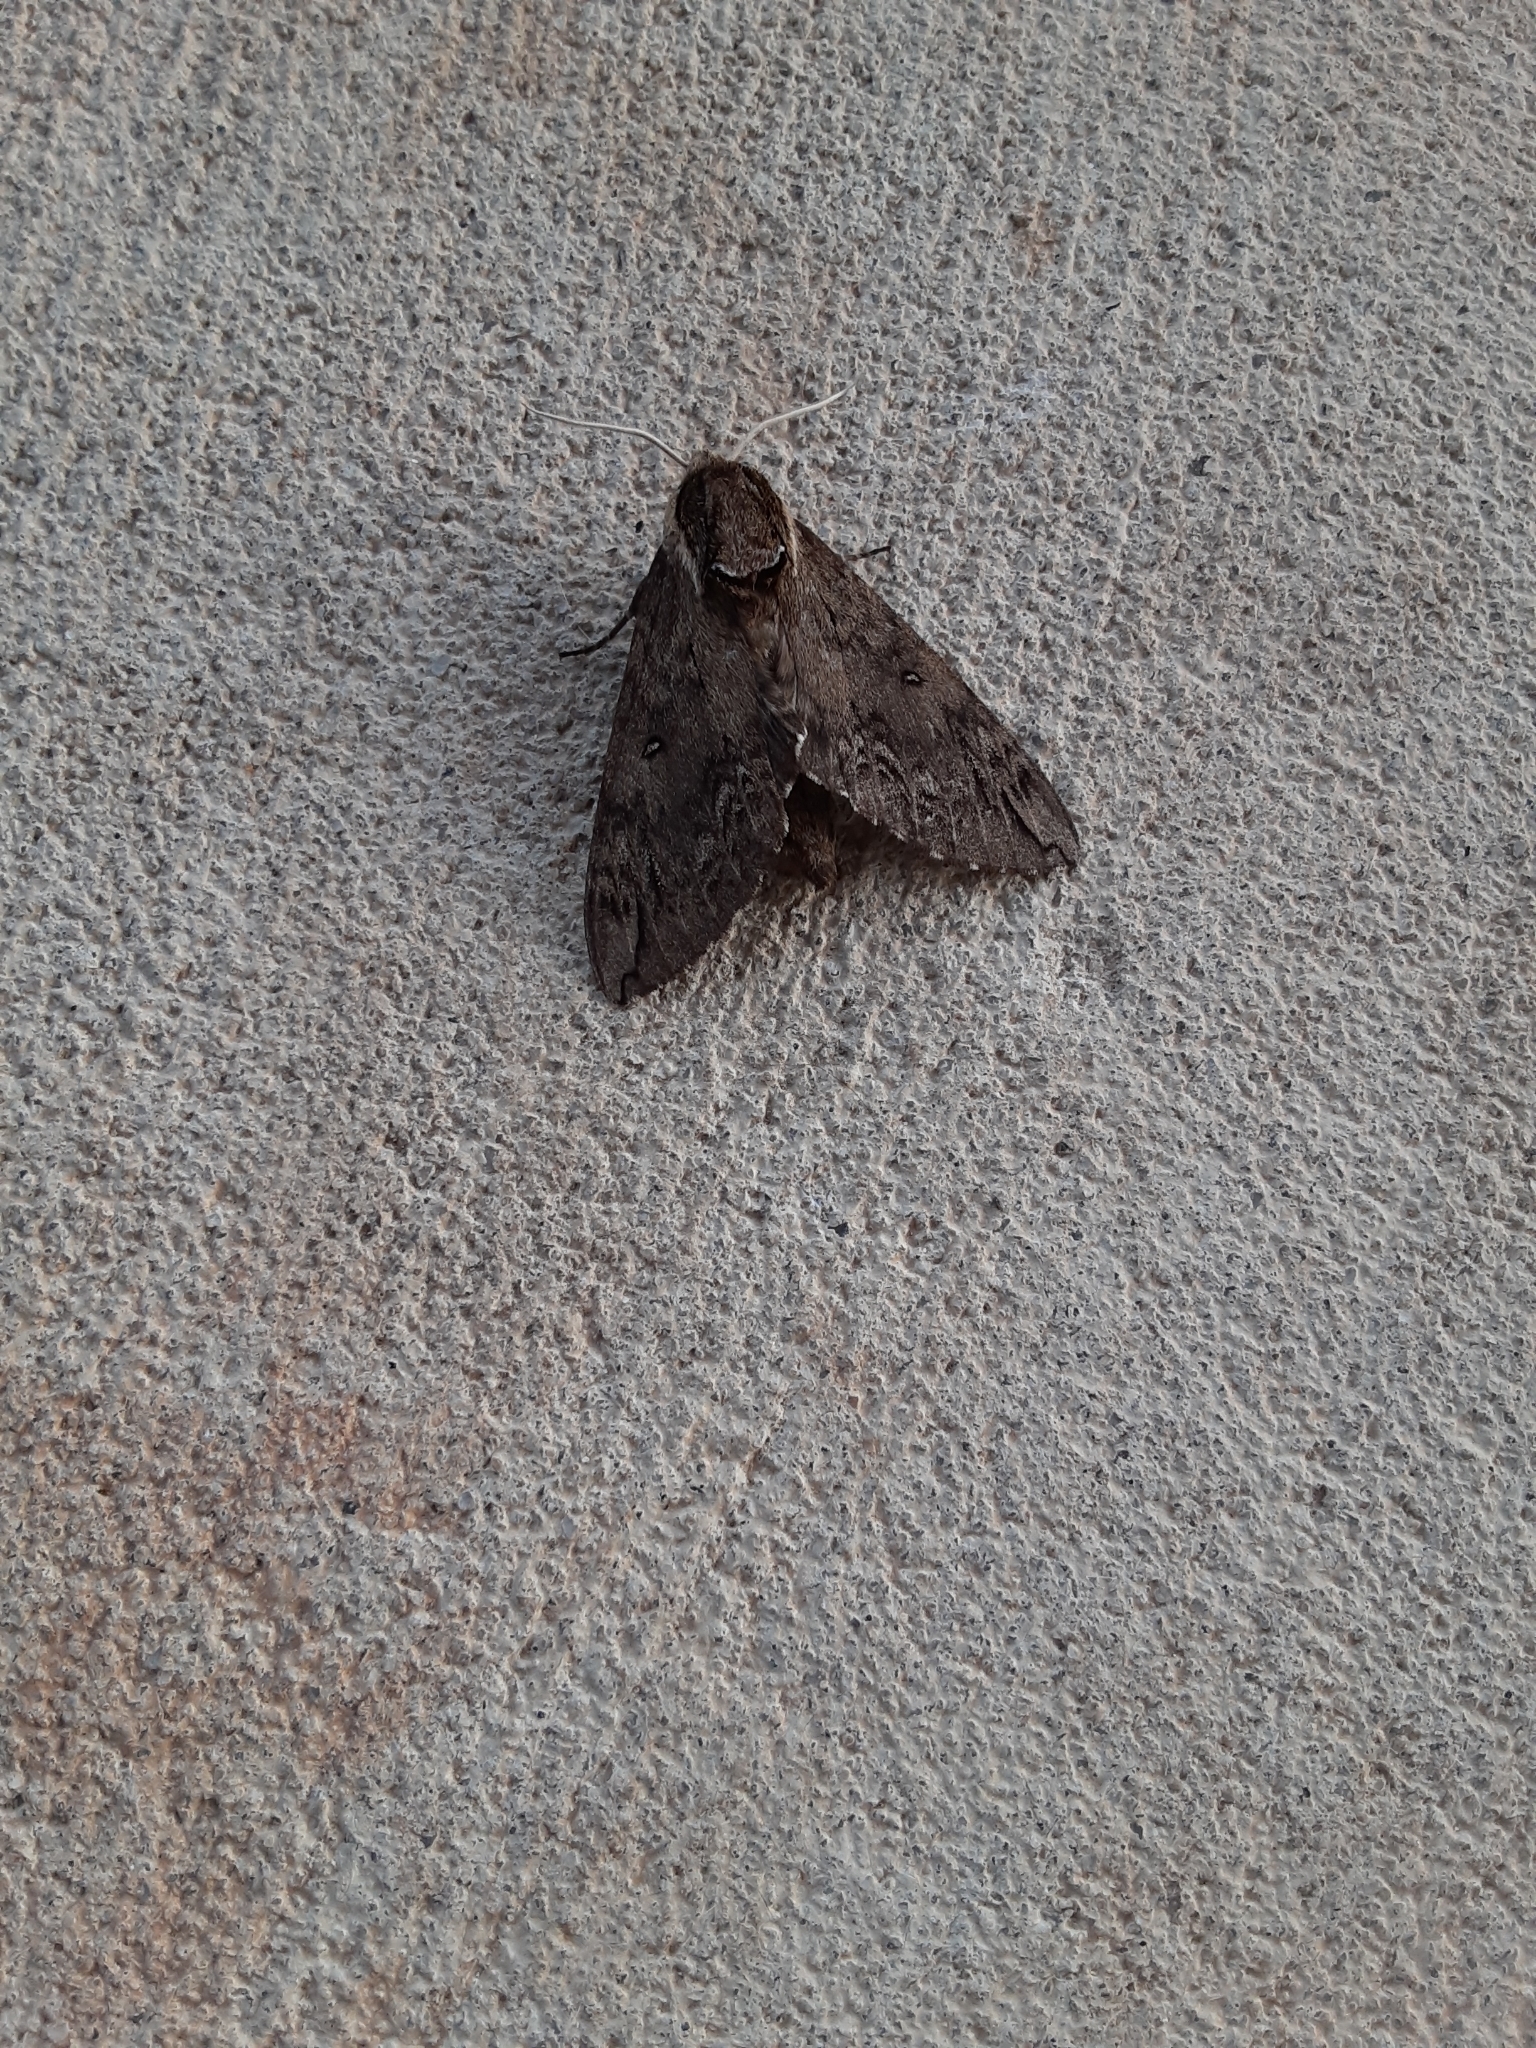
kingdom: Animalia
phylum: Arthropoda
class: Insecta
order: Lepidoptera
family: Sphingidae
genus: Ceratomia
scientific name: Ceratomia catalpae
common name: Catalpa hornworm
